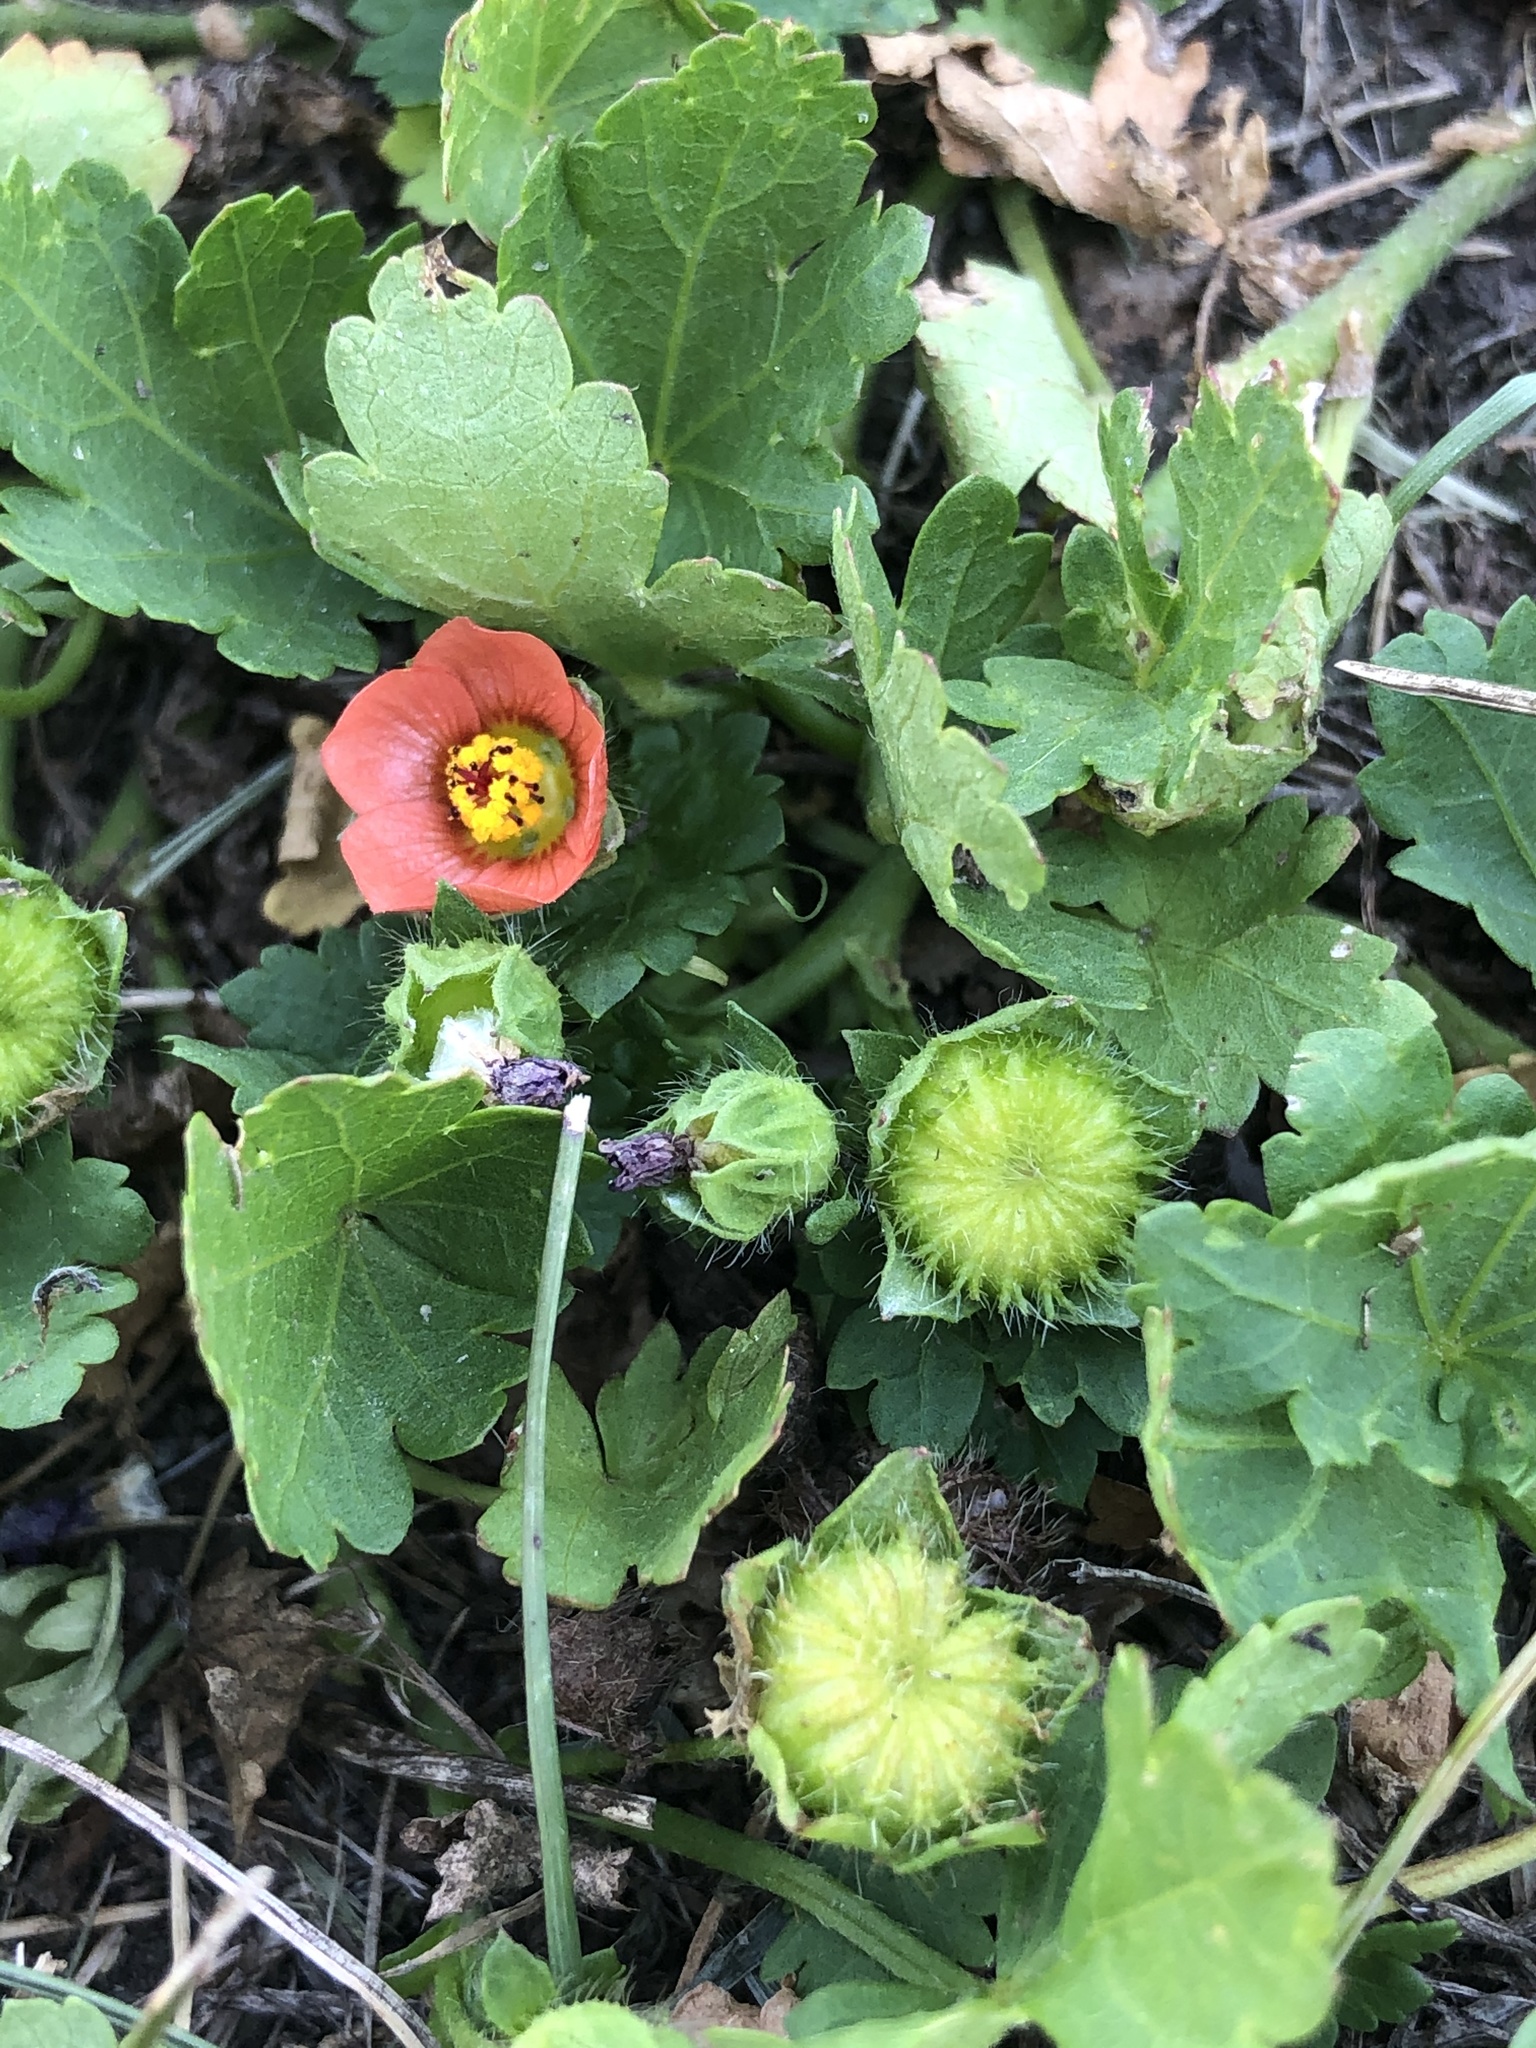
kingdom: Plantae
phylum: Tracheophyta
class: Magnoliopsida
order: Malvales
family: Malvaceae
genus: Modiola
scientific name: Modiola caroliniana
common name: Carolina bristlemallow
